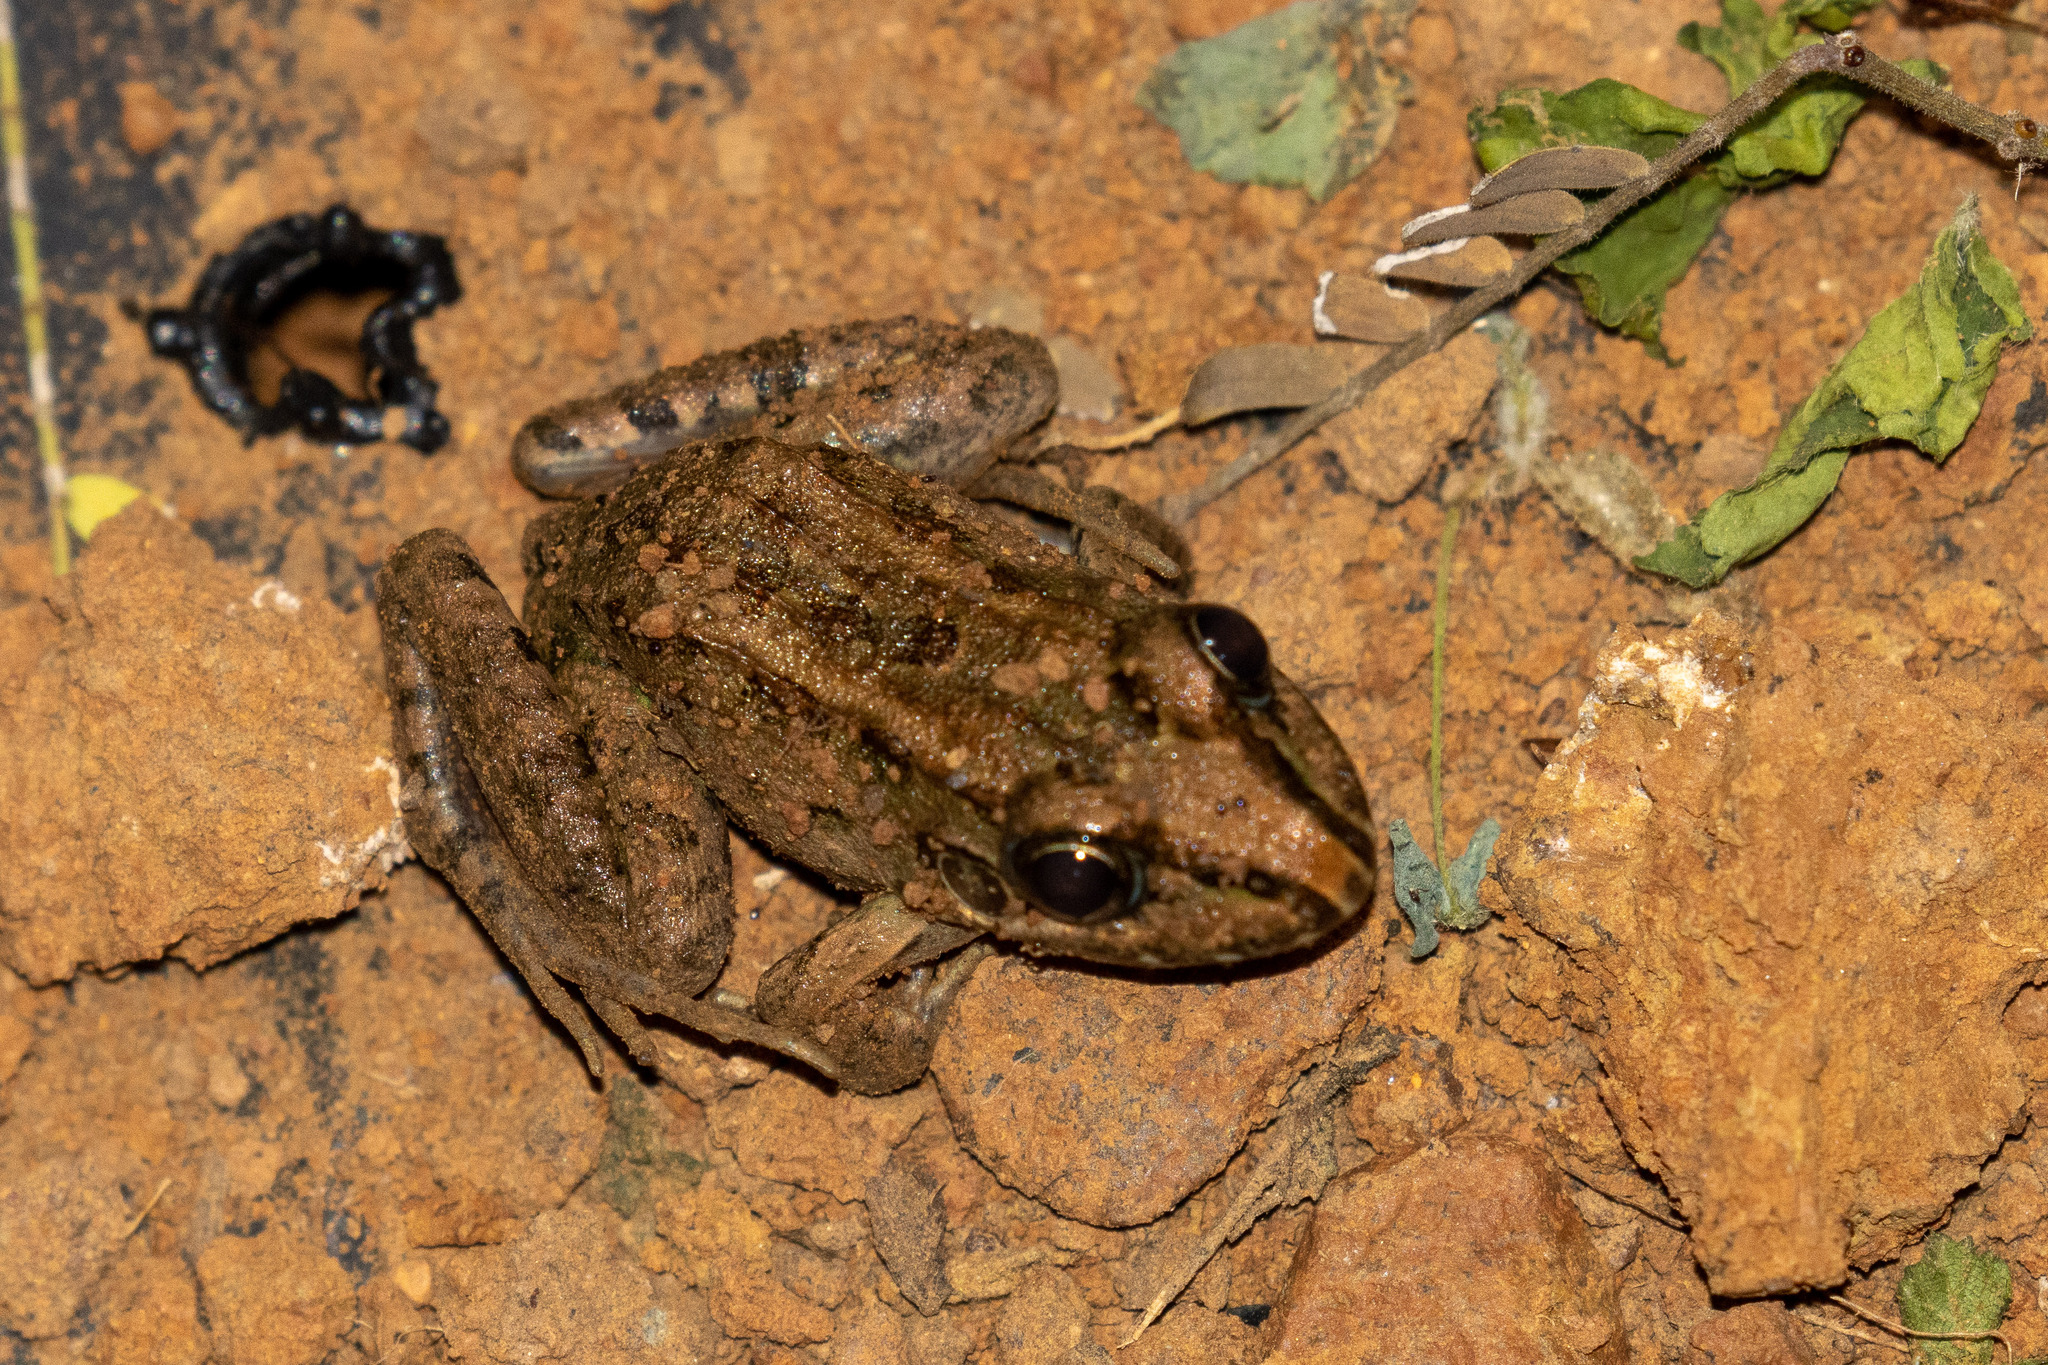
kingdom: Animalia
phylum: Chordata
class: Amphibia
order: Anura
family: Leptodactylidae
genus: Leptodactylus
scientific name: Leptodactylus macrosternum
